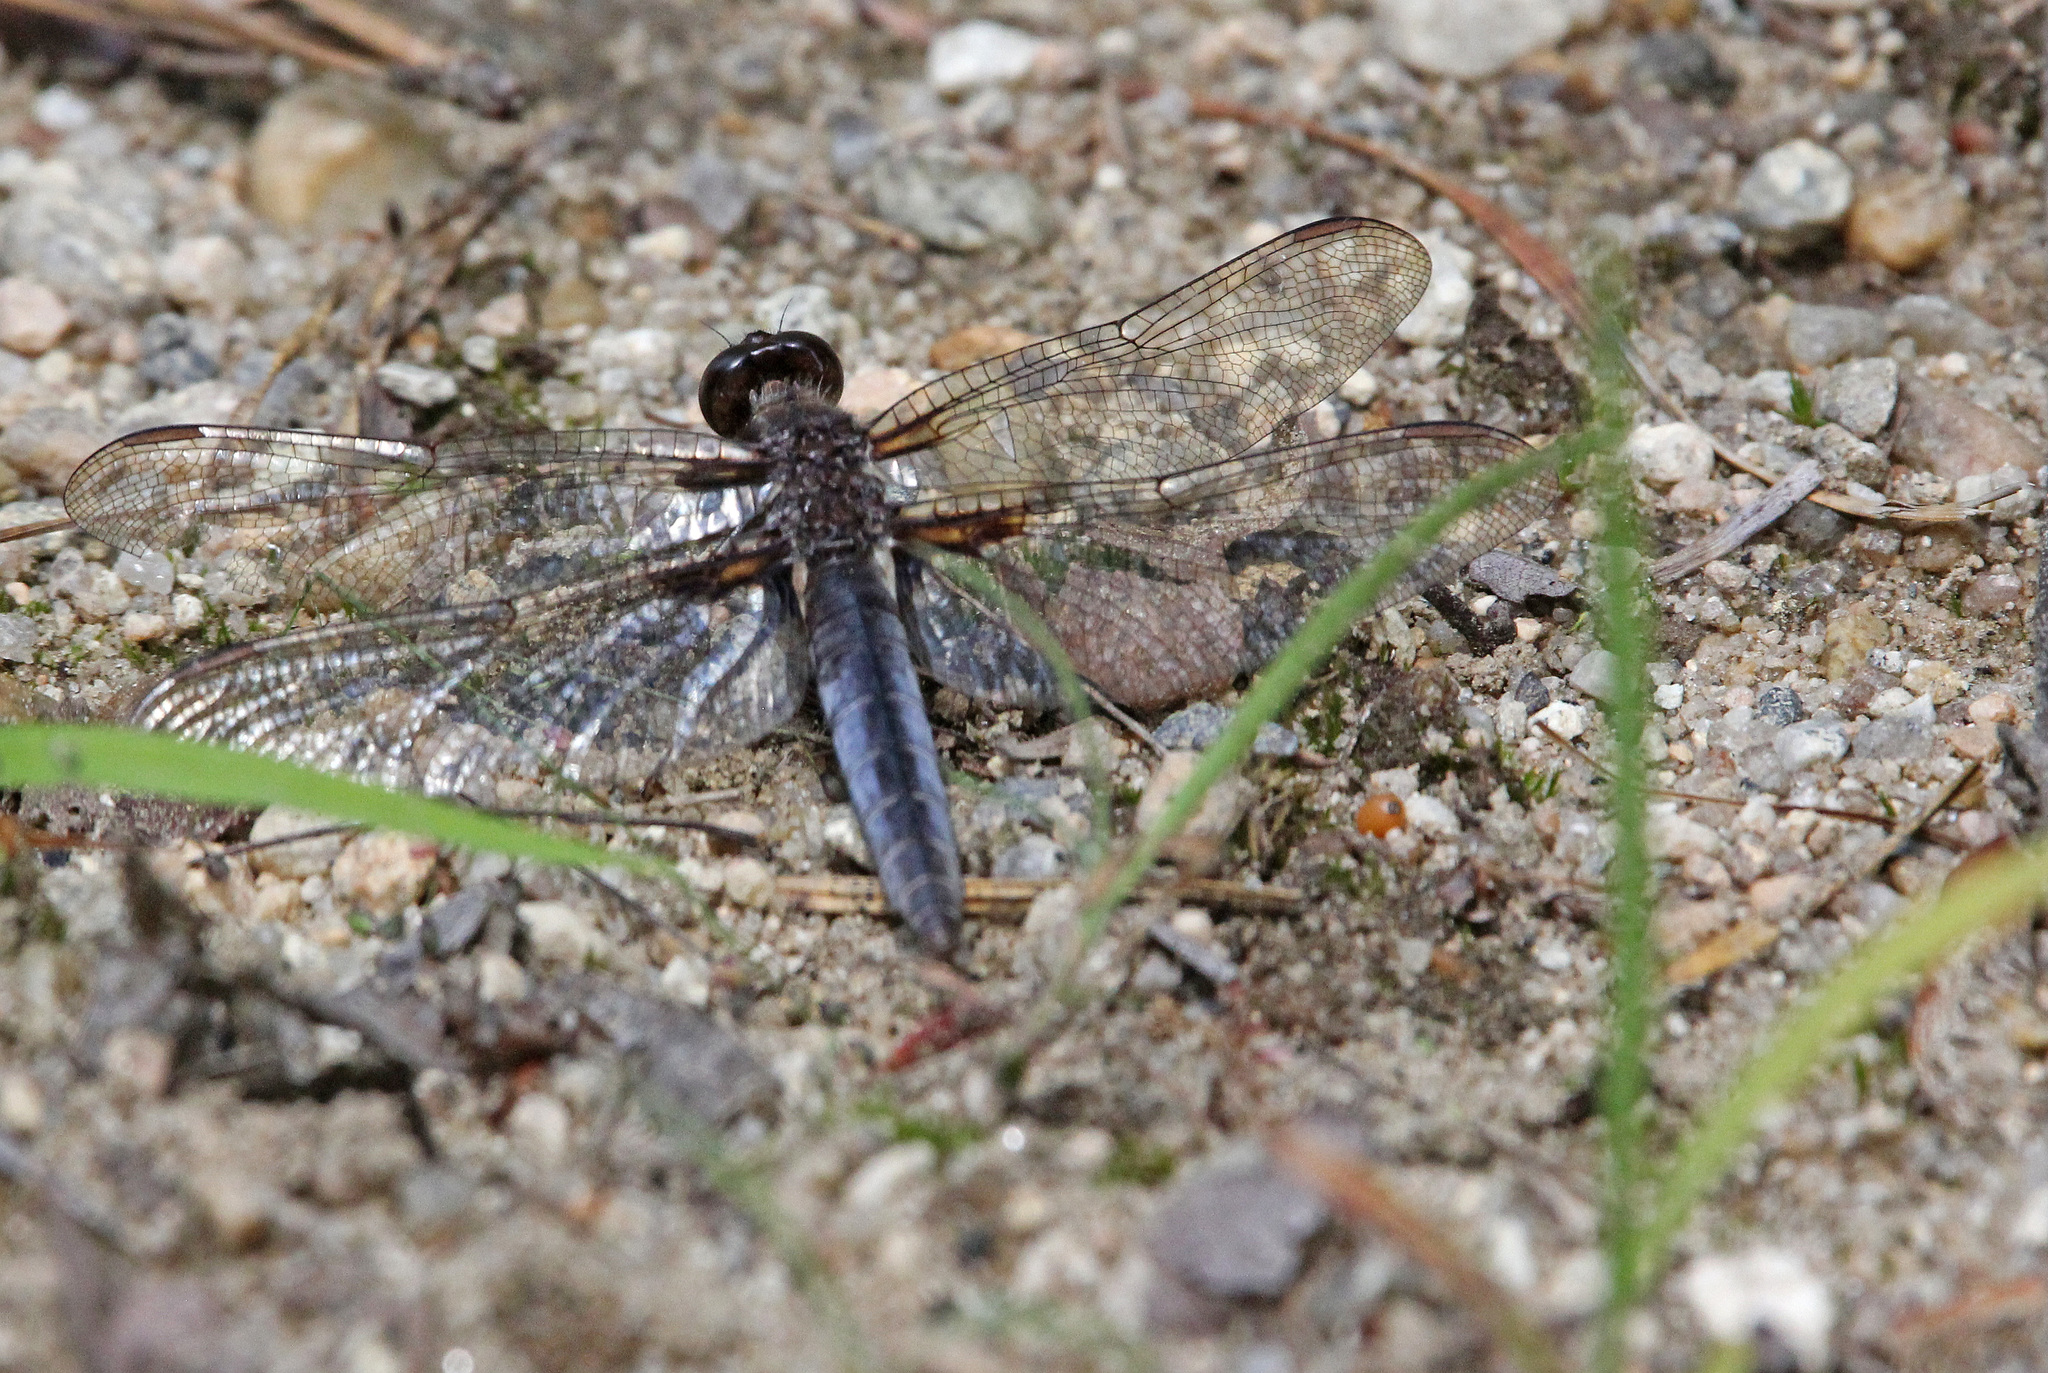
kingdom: Animalia
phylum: Arthropoda
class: Insecta
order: Odonata
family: Libellulidae
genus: Ladona
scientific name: Ladona deplanata
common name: Blue corporal
